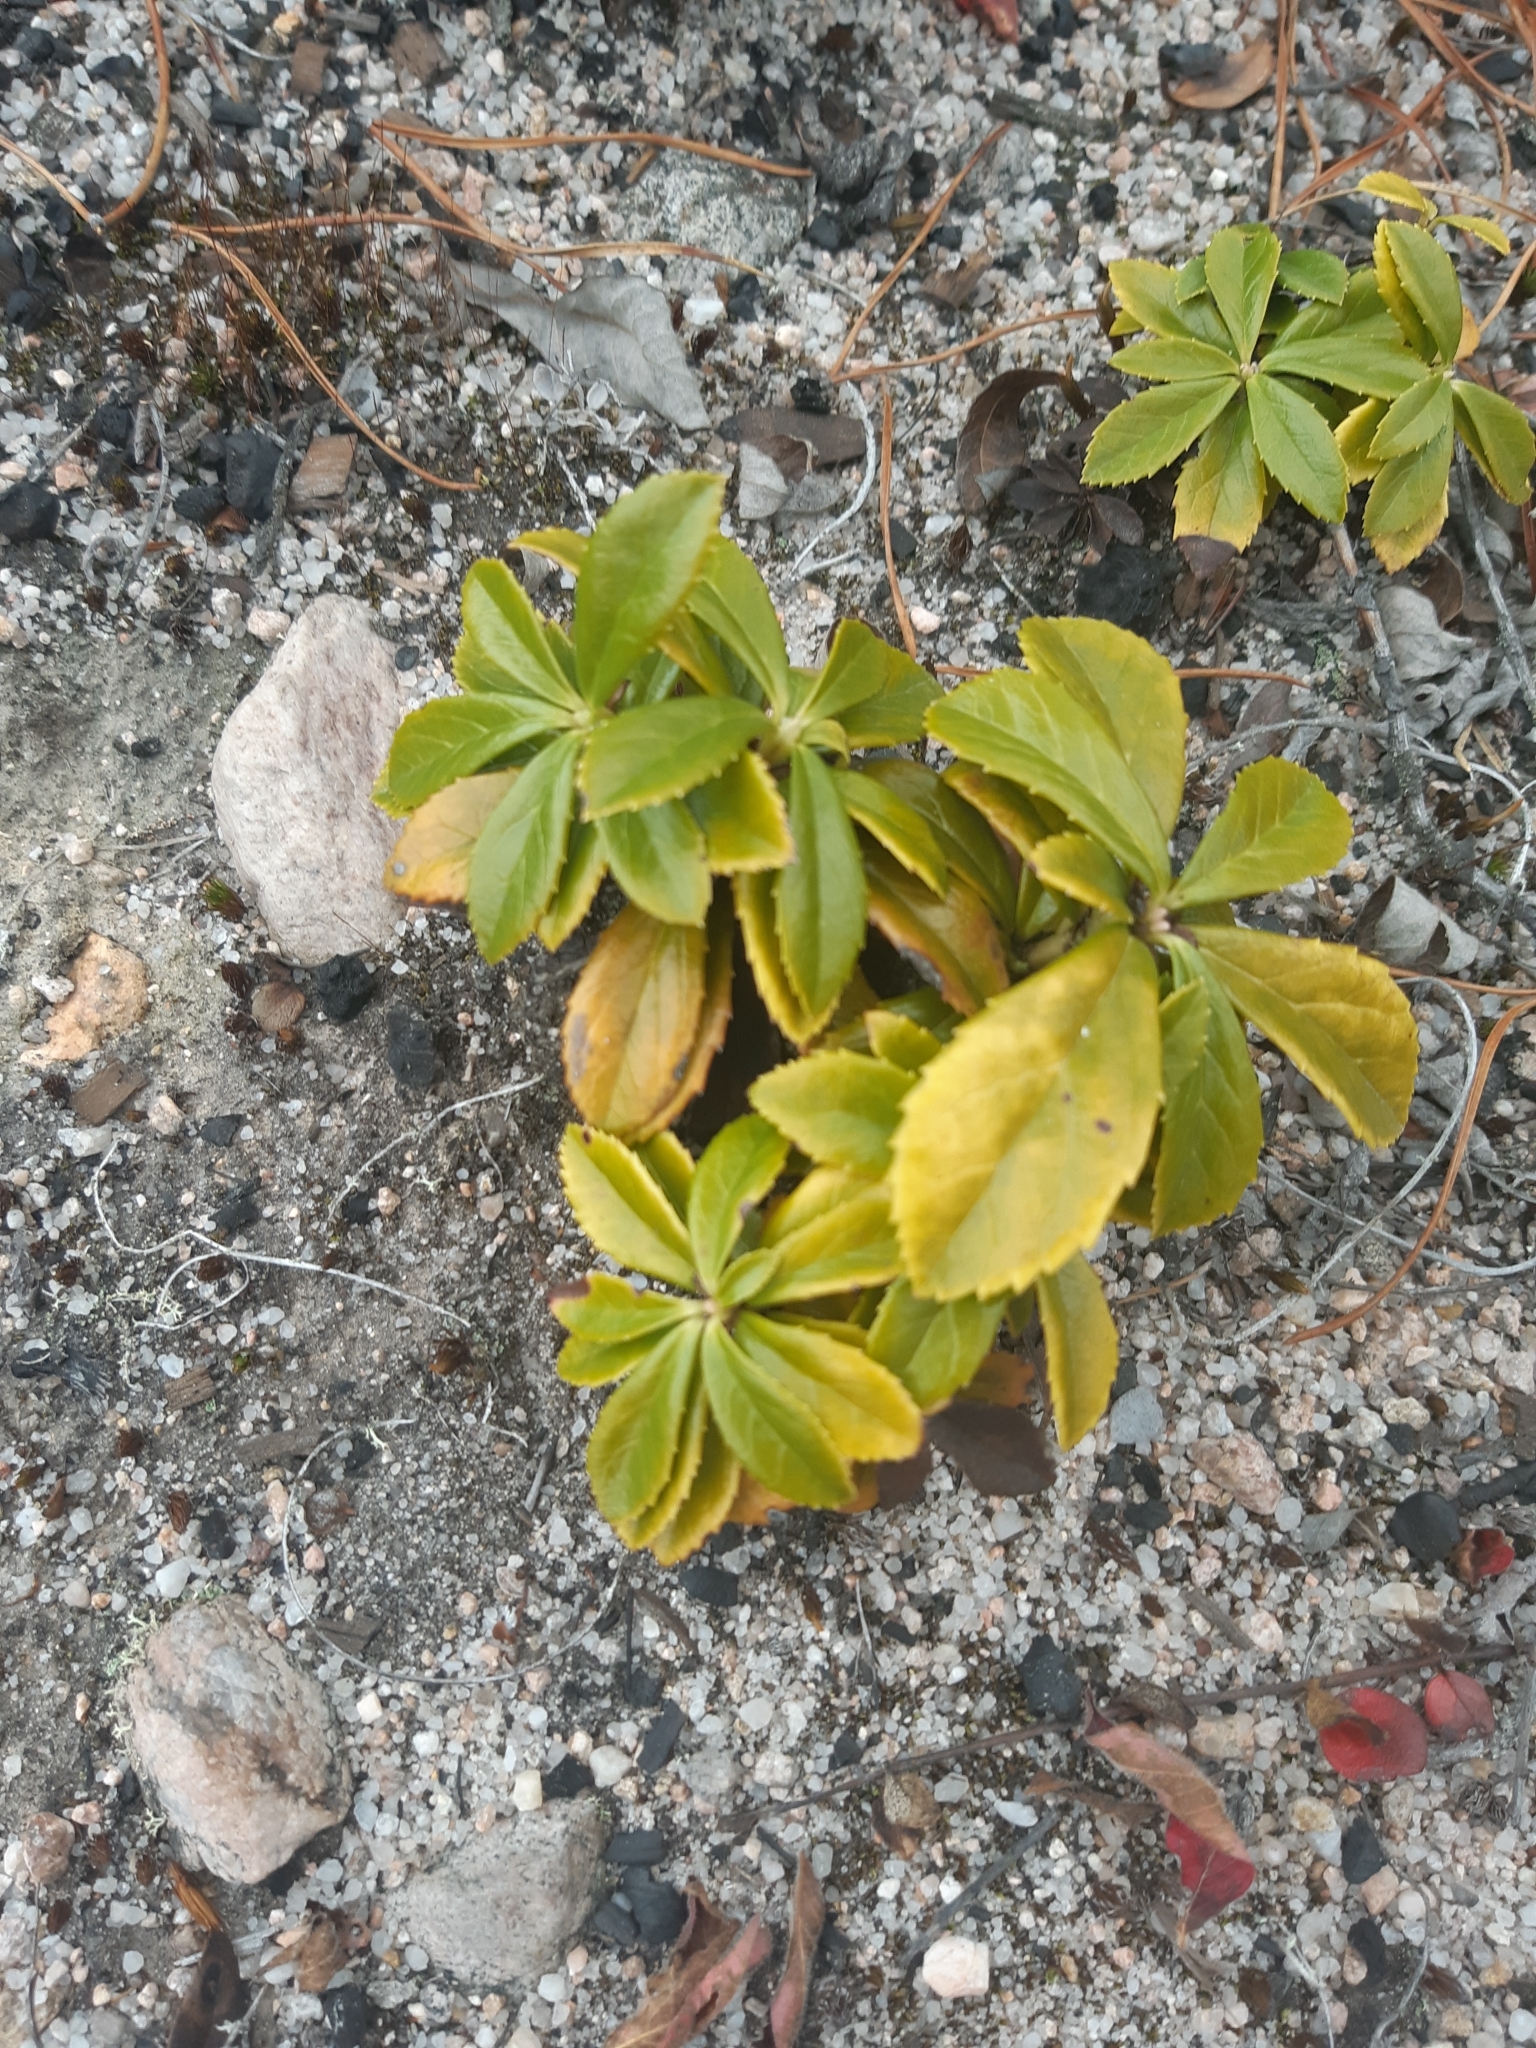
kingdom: Plantae
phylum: Tracheophyta
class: Magnoliopsida
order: Ericales
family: Ericaceae
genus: Chimaphila
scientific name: Chimaphila umbellata
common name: Pipsissewa
